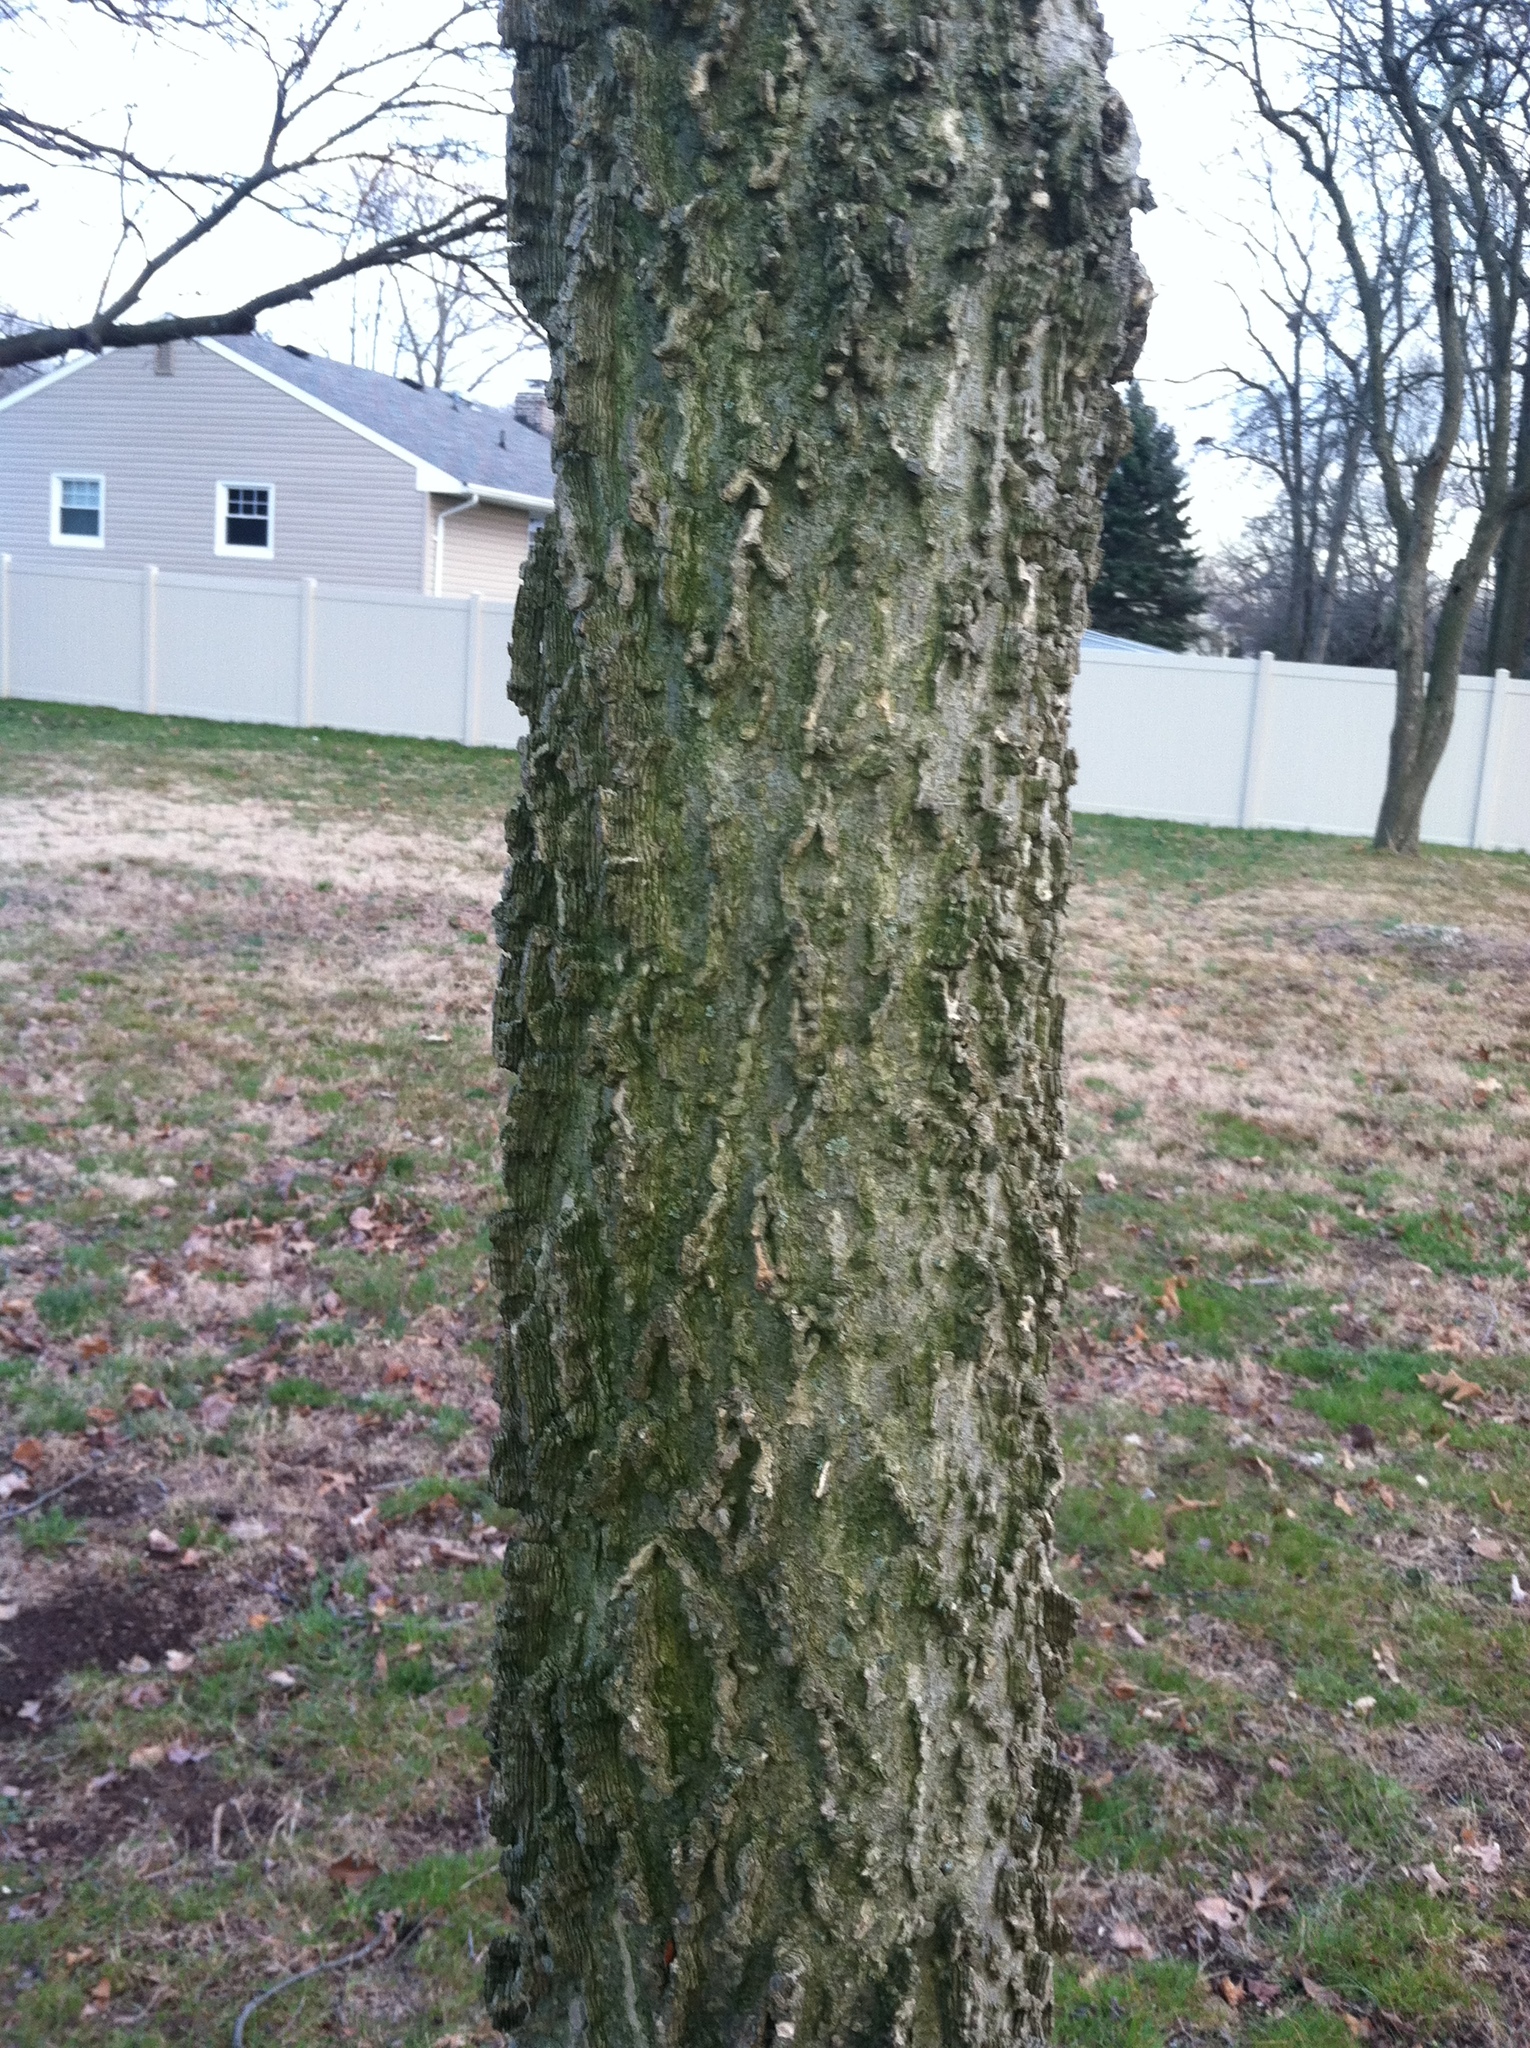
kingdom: Plantae
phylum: Tracheophyta
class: Magnoliopsida
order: Rosales
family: Cannabaceae
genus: Celtis
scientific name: Celtis occidentalis
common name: Common hackberry
